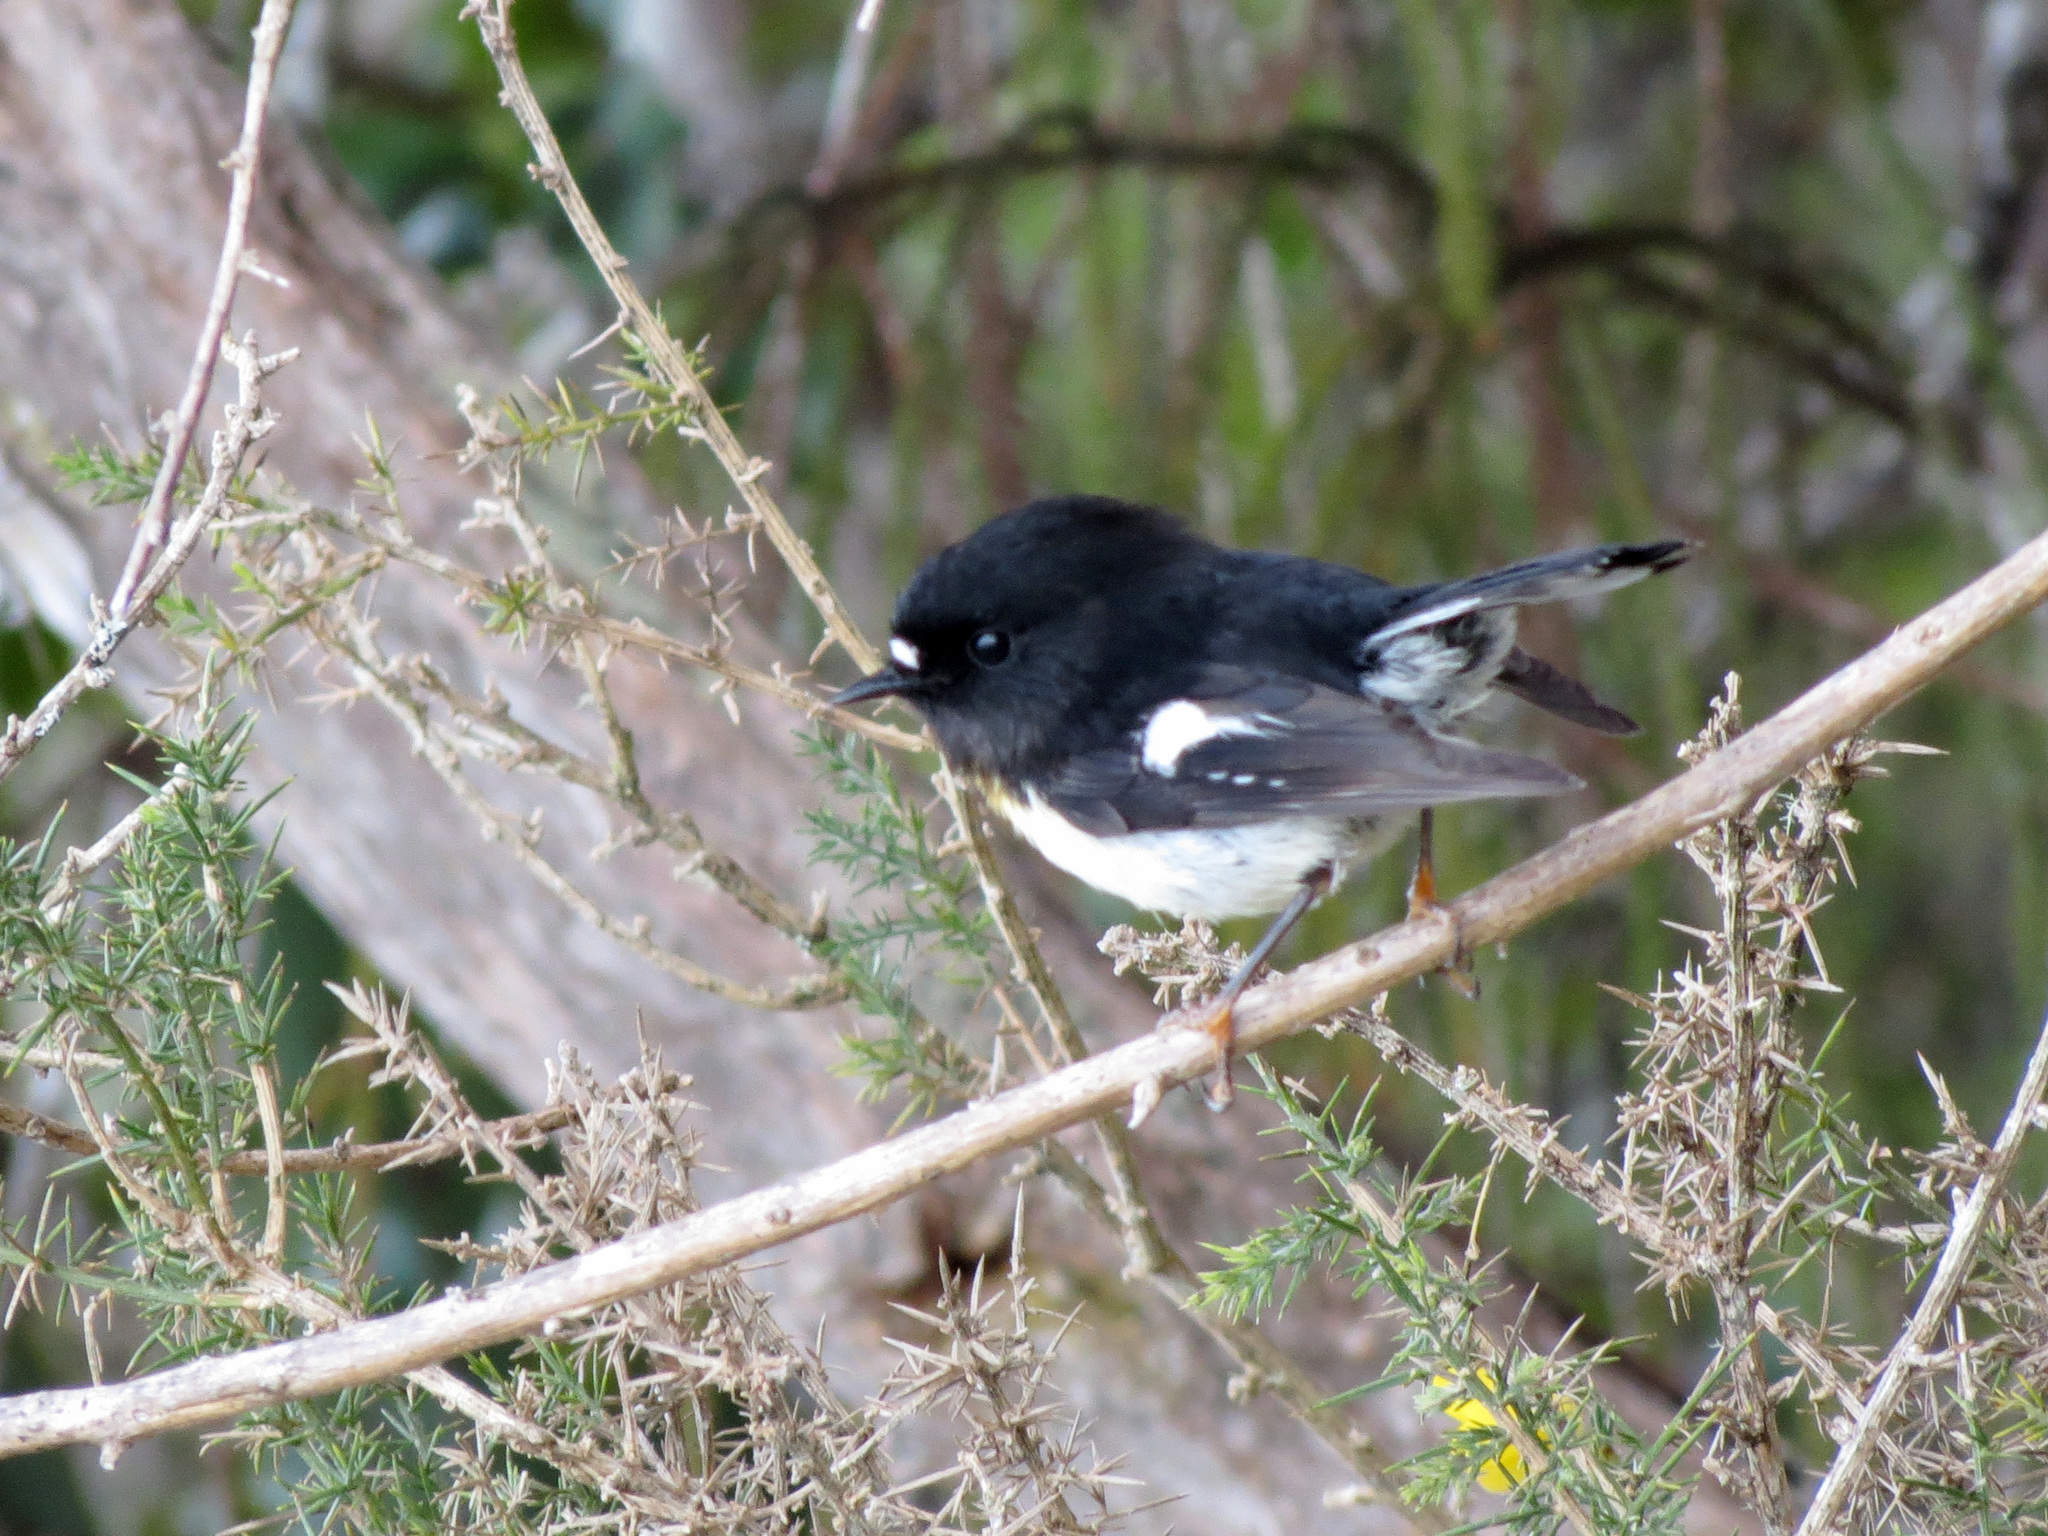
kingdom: Animalia
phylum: Chordata
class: Aves
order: Passeriformes
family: Petroicidae
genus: Petroica
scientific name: Petroica macrocephala
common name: Tomtit
